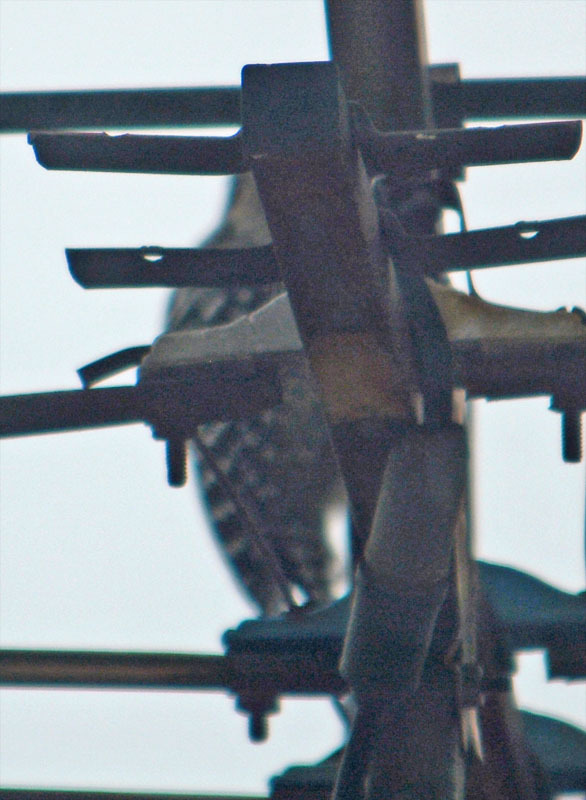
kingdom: Animalia
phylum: Chordata
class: Aves
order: Piciformes
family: Picidae
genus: Dryobates
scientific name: Dryobates scalaris
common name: Ladder-backed woodpecker
